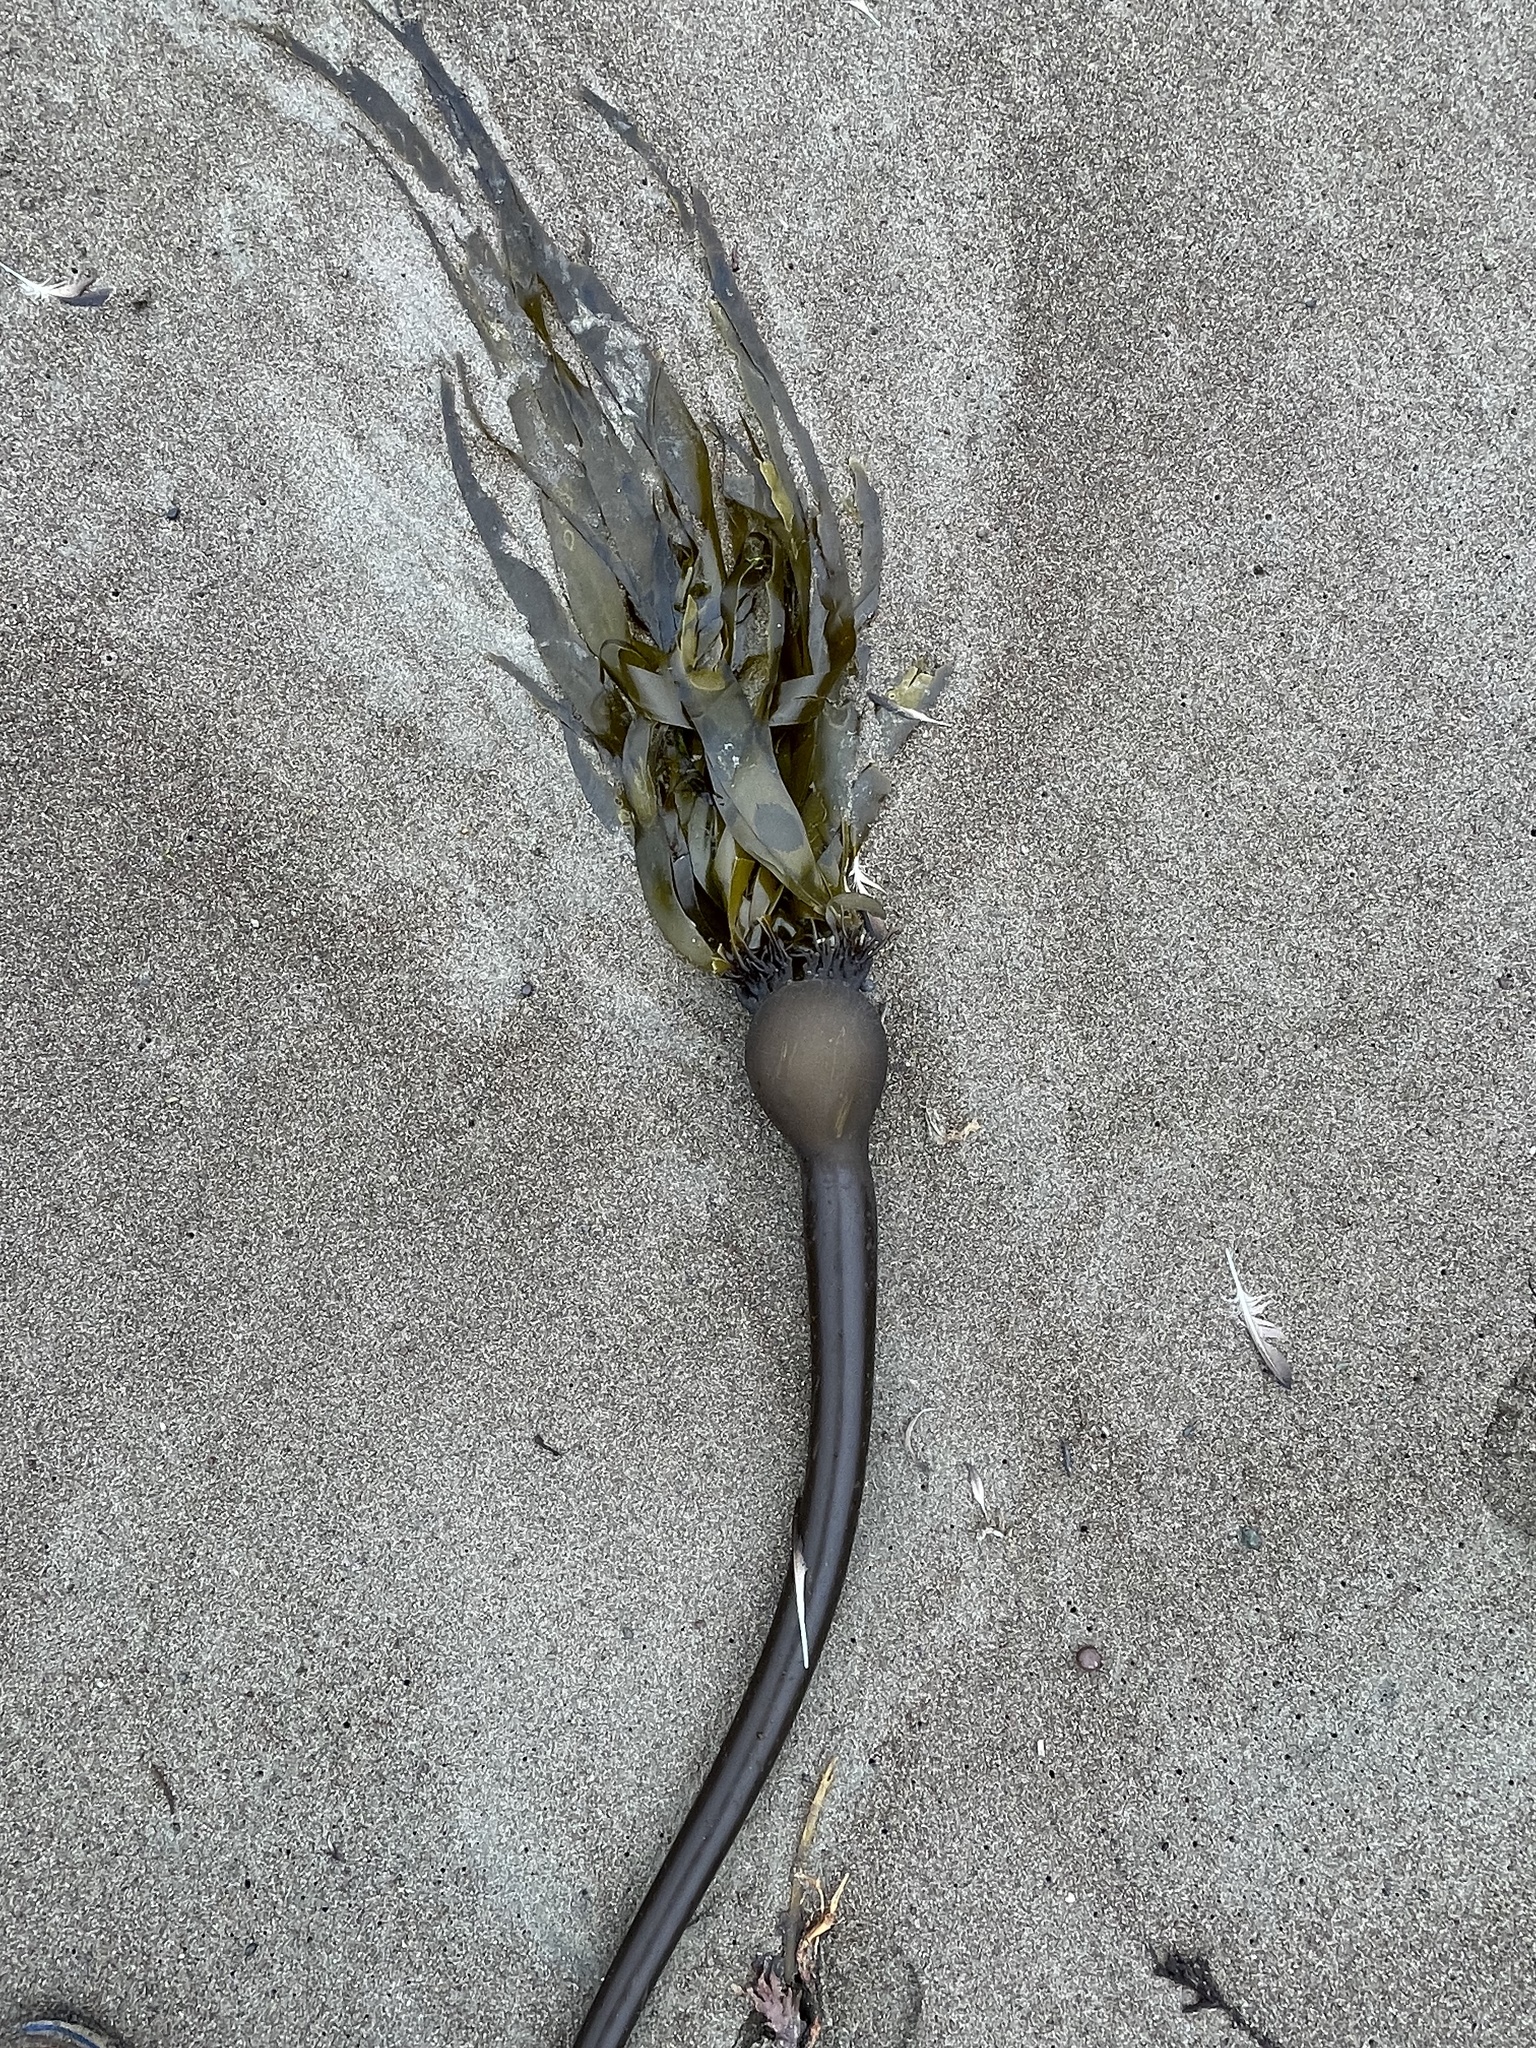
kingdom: Chromista
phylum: Ochrophyta
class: Phaeophyceae
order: Laminariales
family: Laminariaceae
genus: Nereocystis
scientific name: Nereocystis luetkeana
